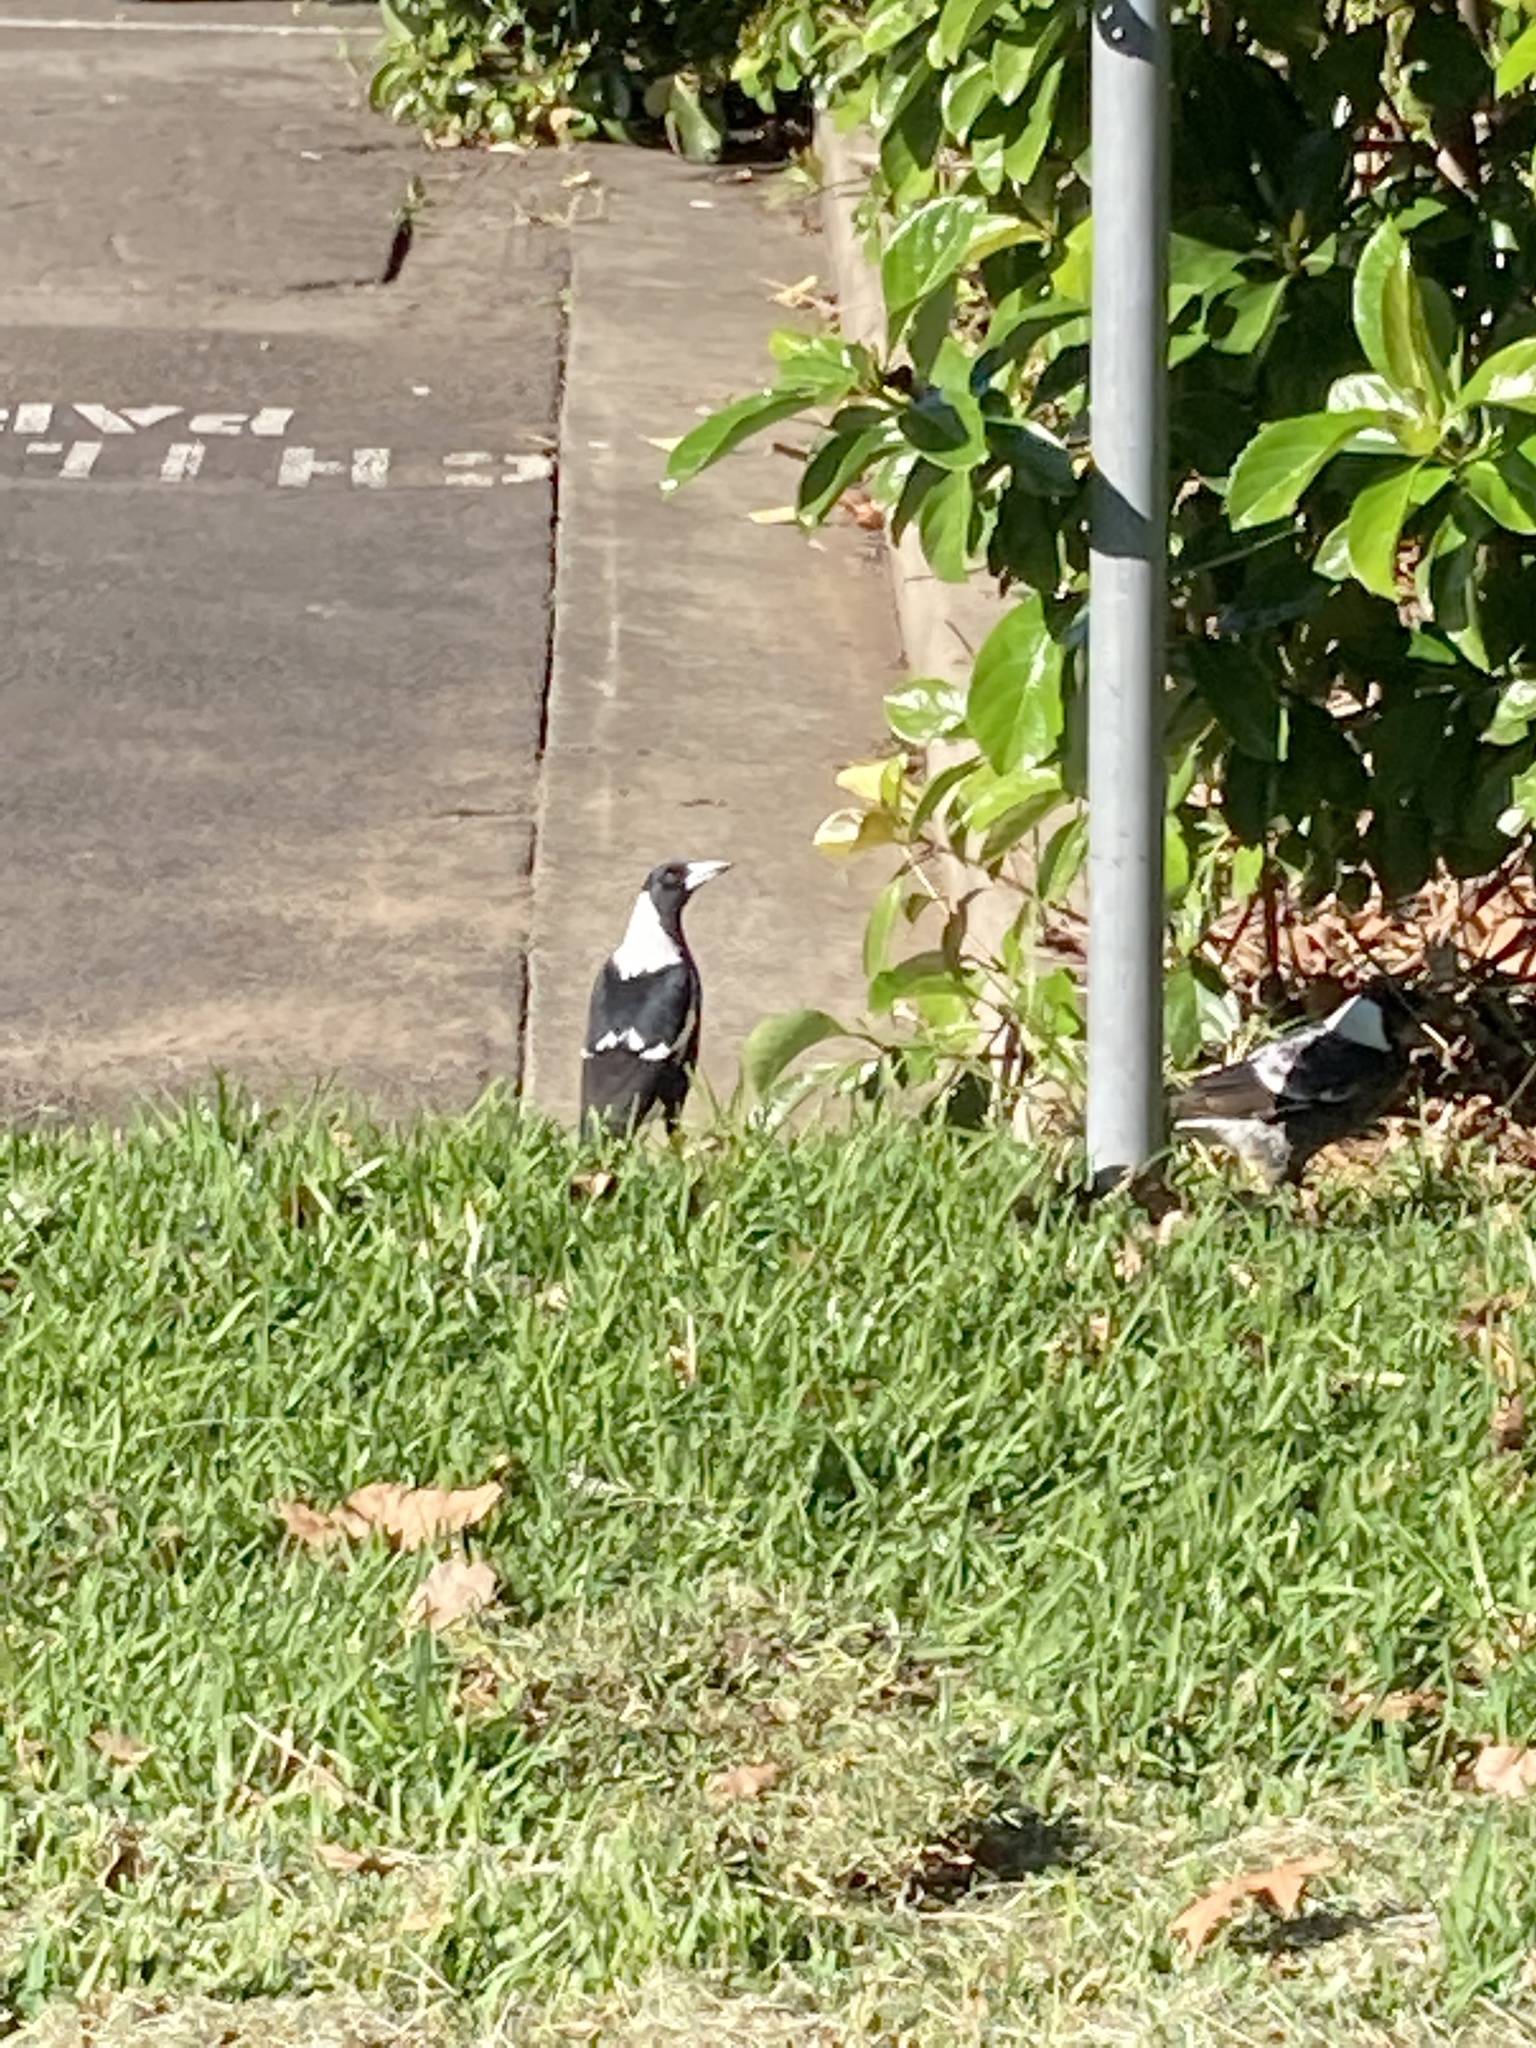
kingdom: Animalia
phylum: Chordata
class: Aves
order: Passeriformes
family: Cracticidae
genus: Gymnorhina
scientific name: Gymnorhina tibicen
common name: Australian magpie
